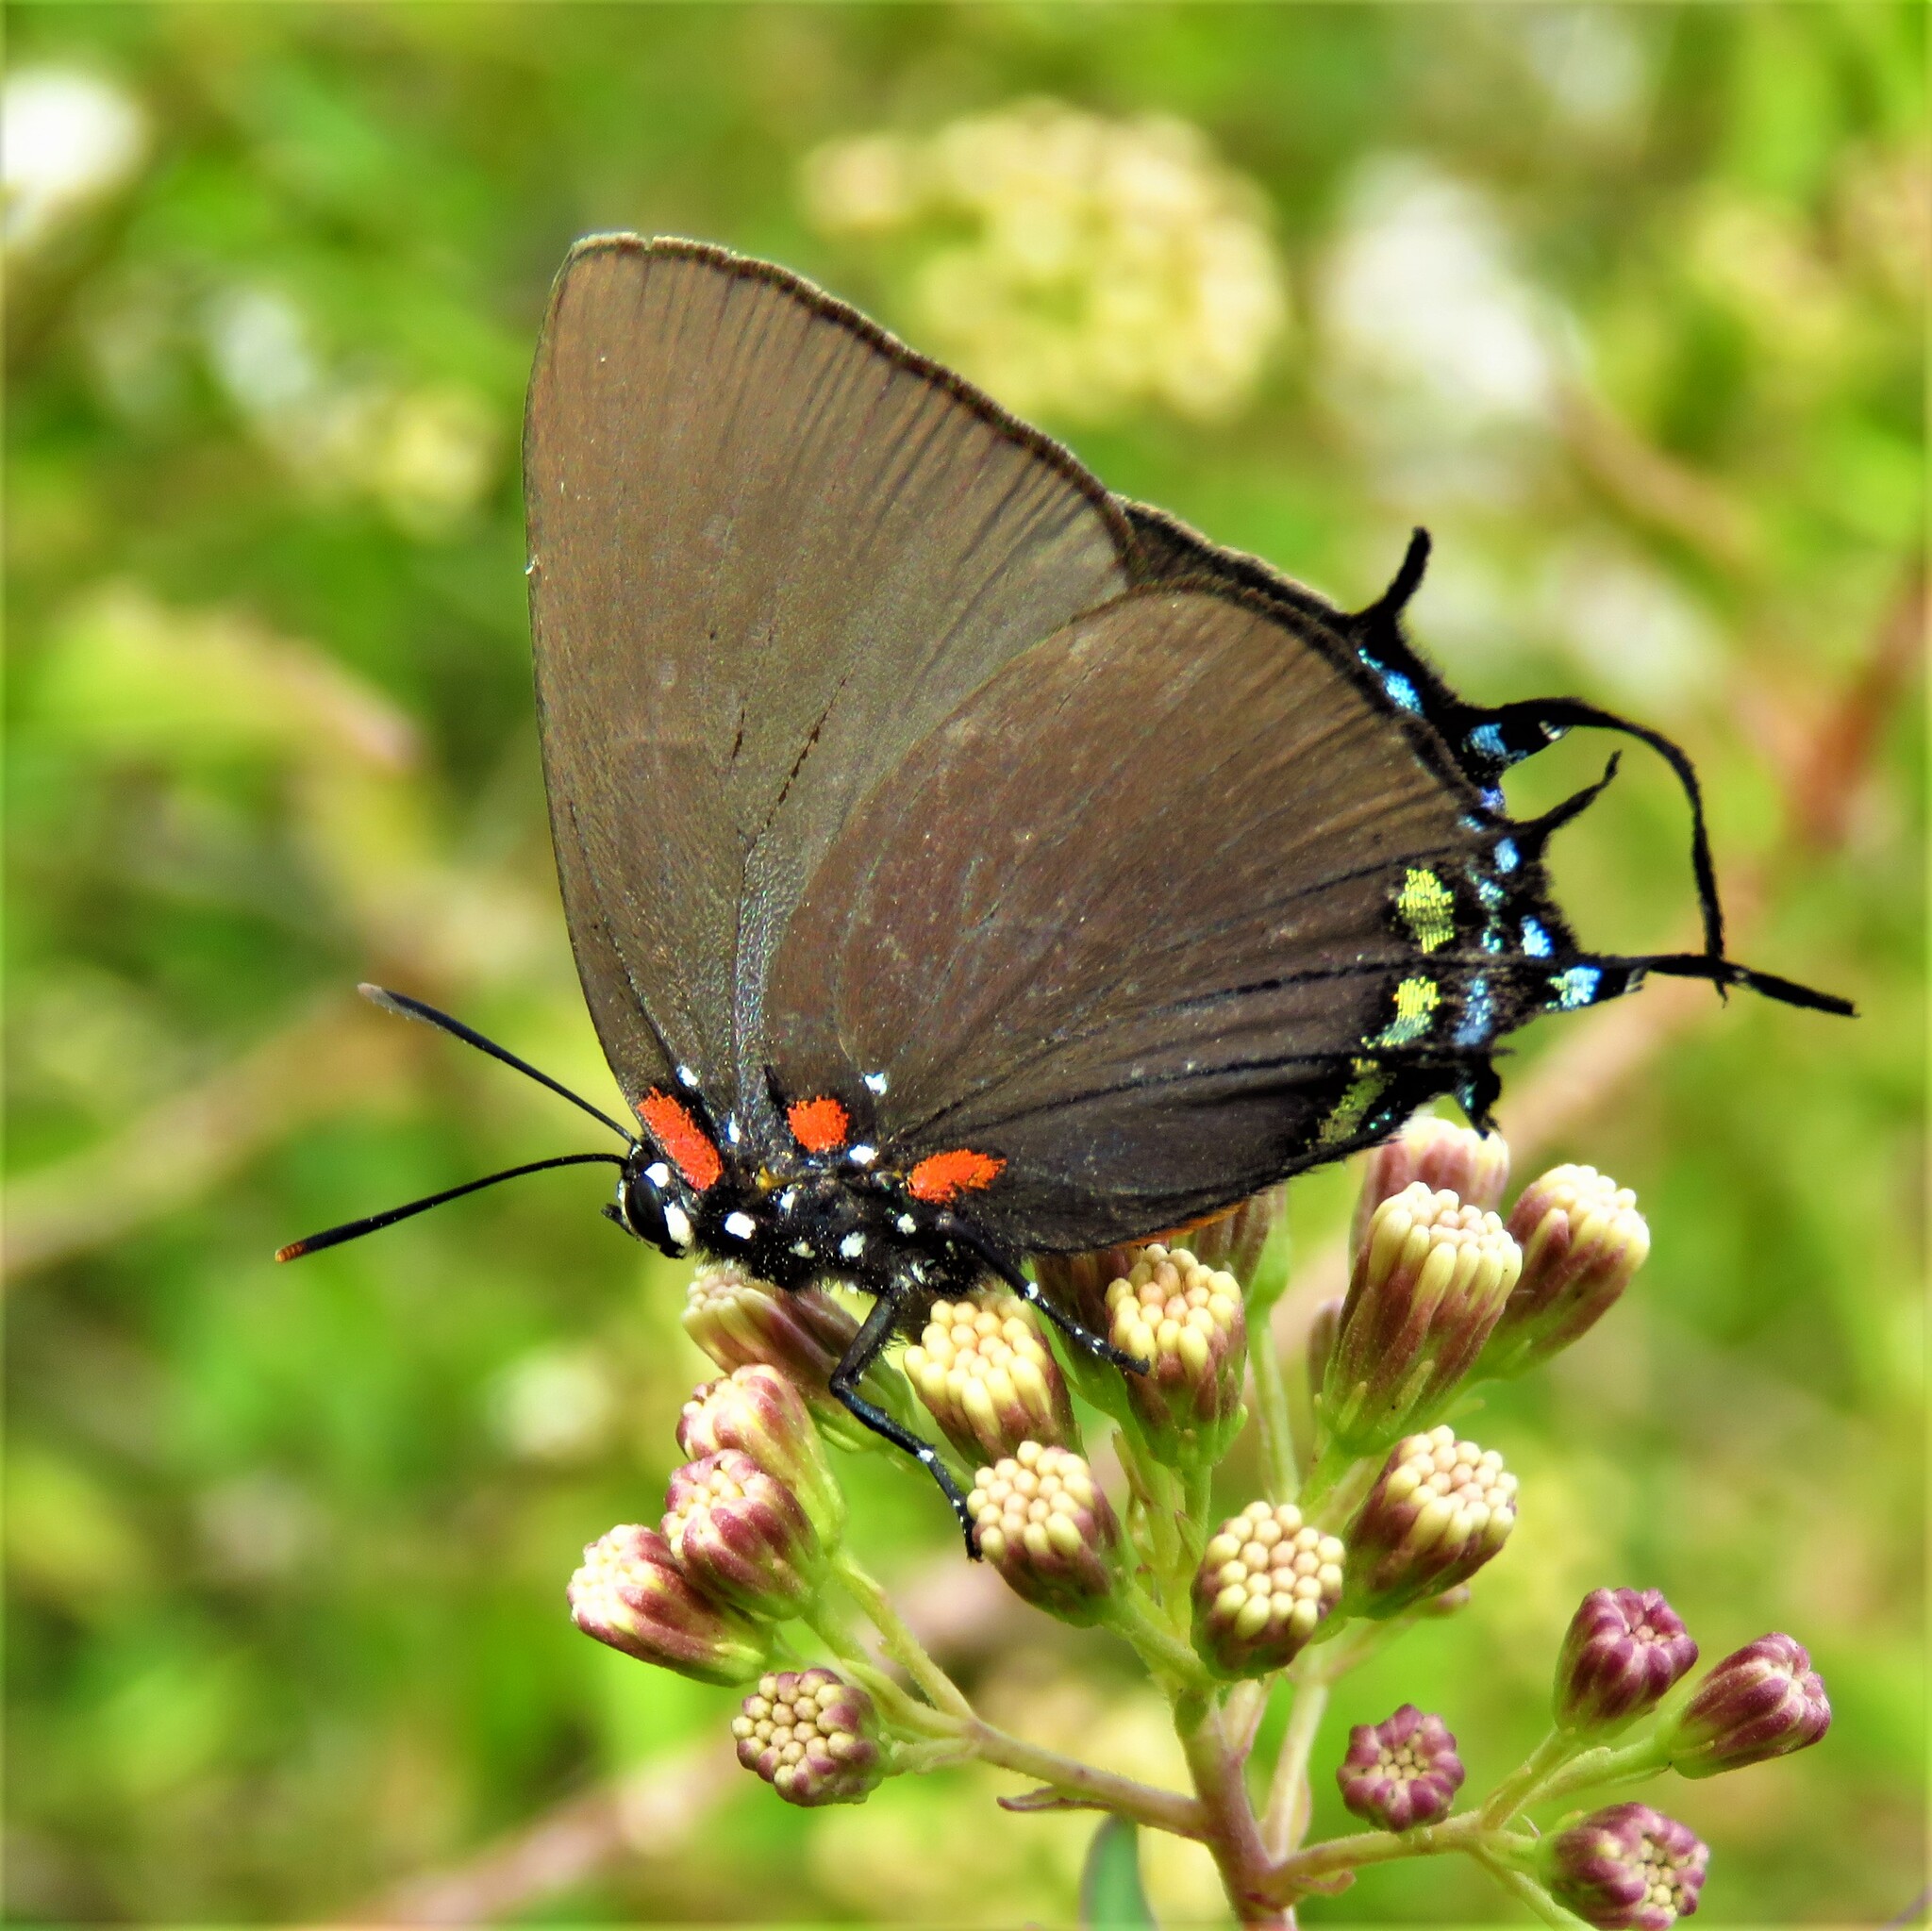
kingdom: Animalia
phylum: Arthropoda
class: Insecta
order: Lepidoptera
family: Lycaenidae
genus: Atlides
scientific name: Atlides halesus
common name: Great purple hairstreak
